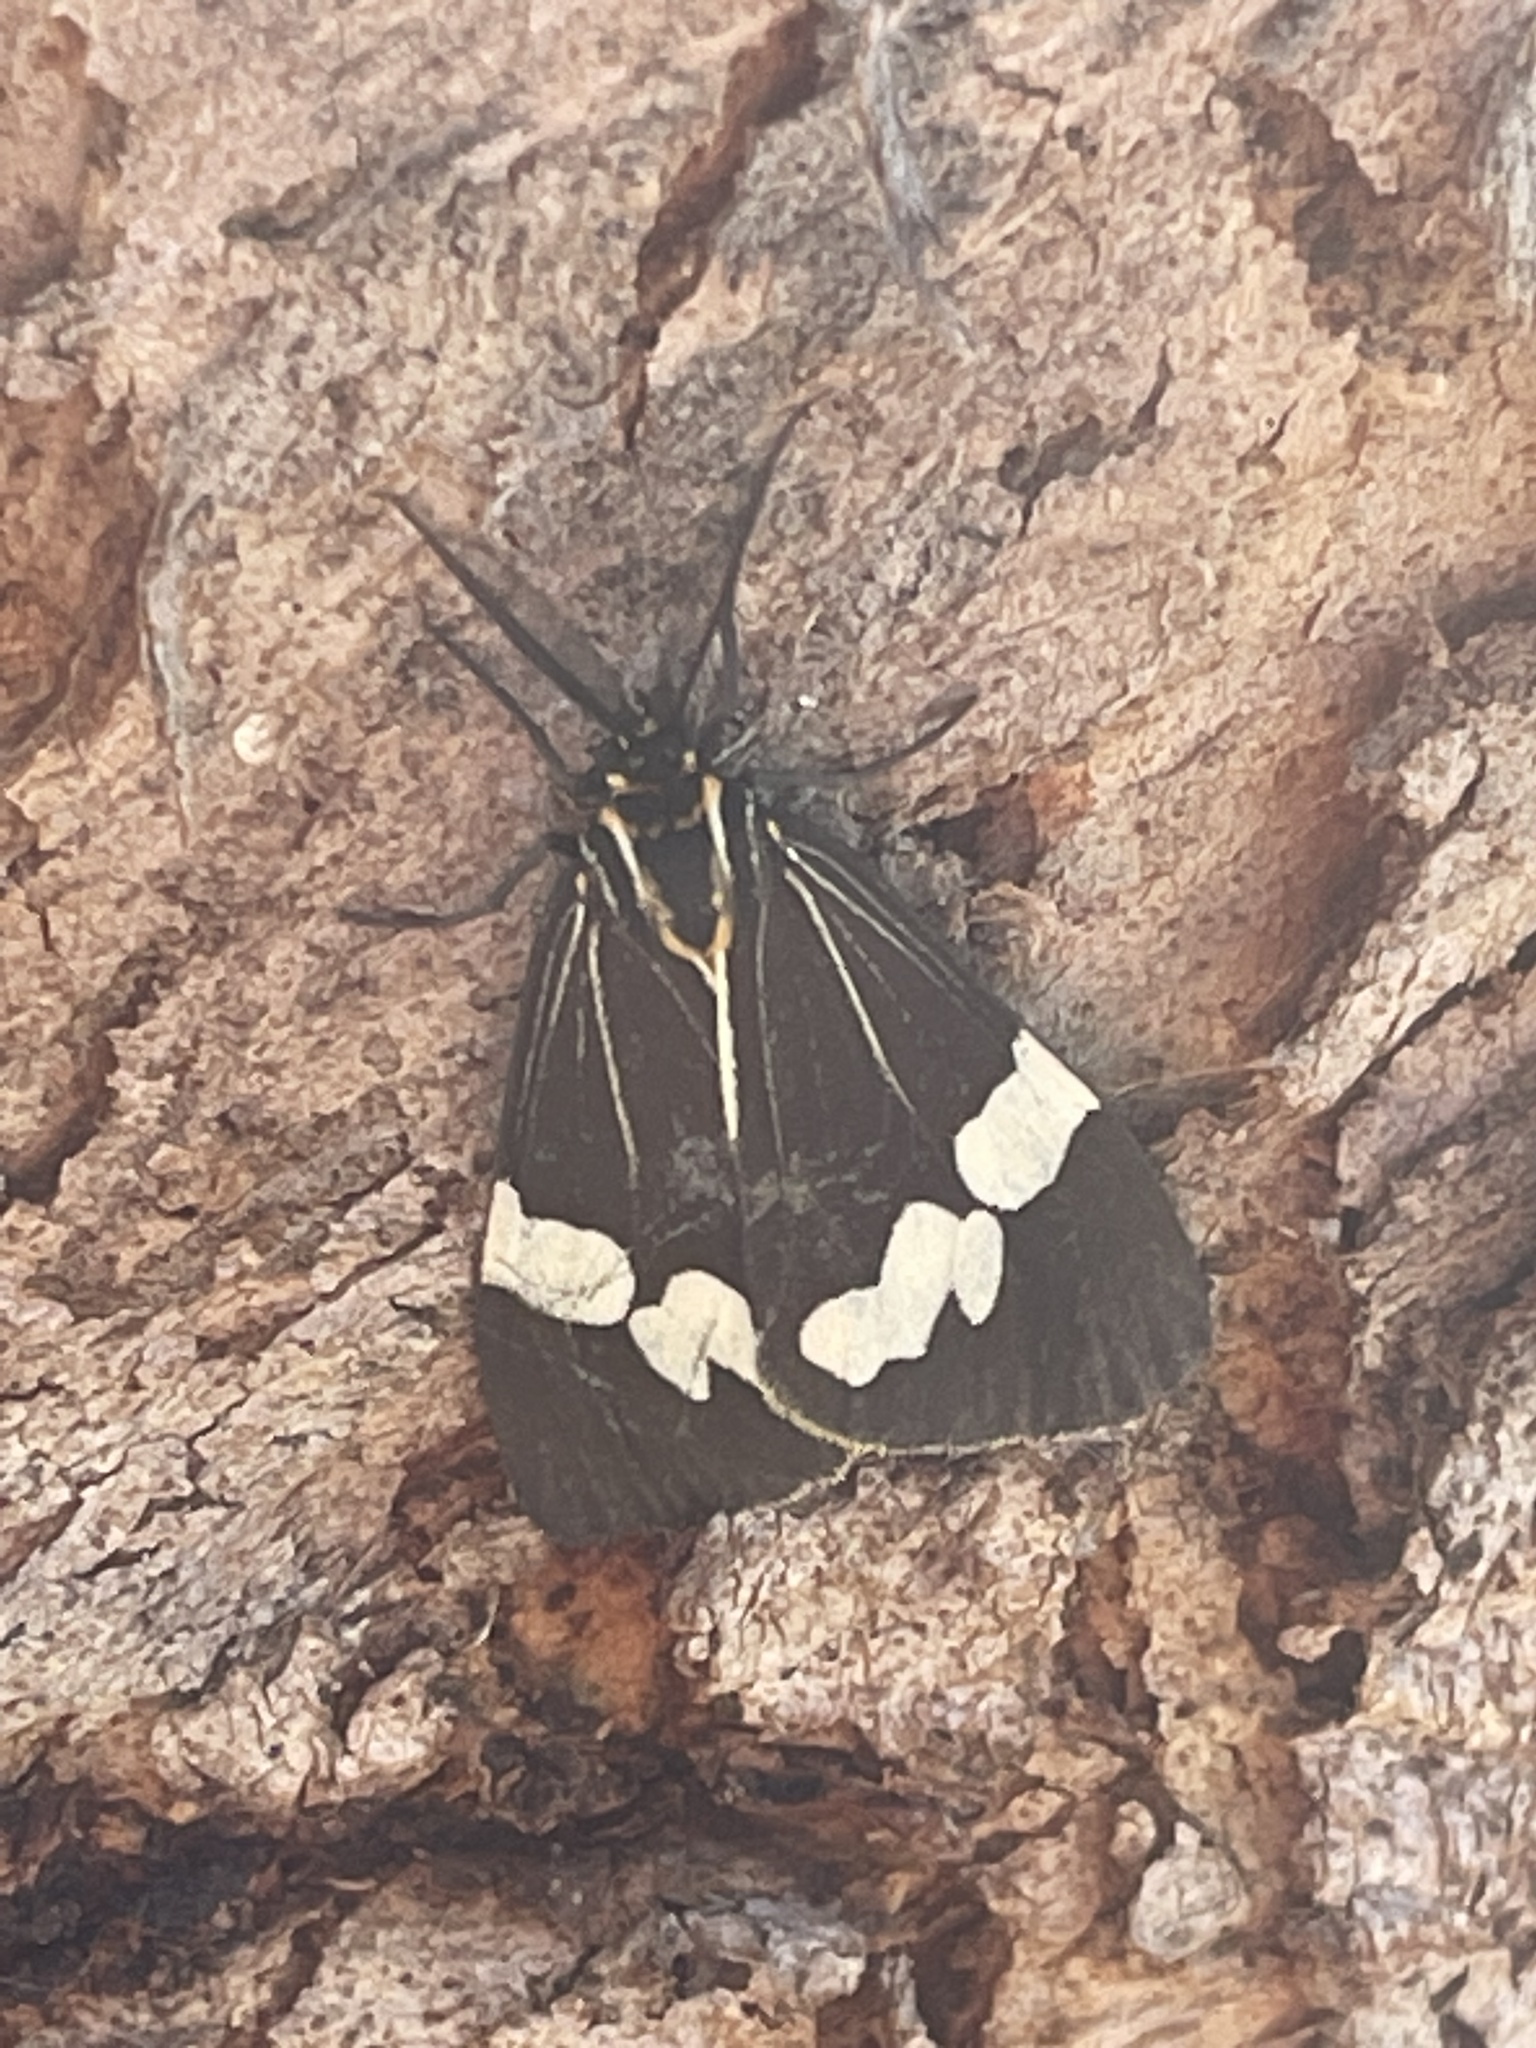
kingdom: Animalia
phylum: Arthropoda
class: Insecta
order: Lepidoptera
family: Erebidae
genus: Nyctemera
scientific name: Nyctemera amicus
